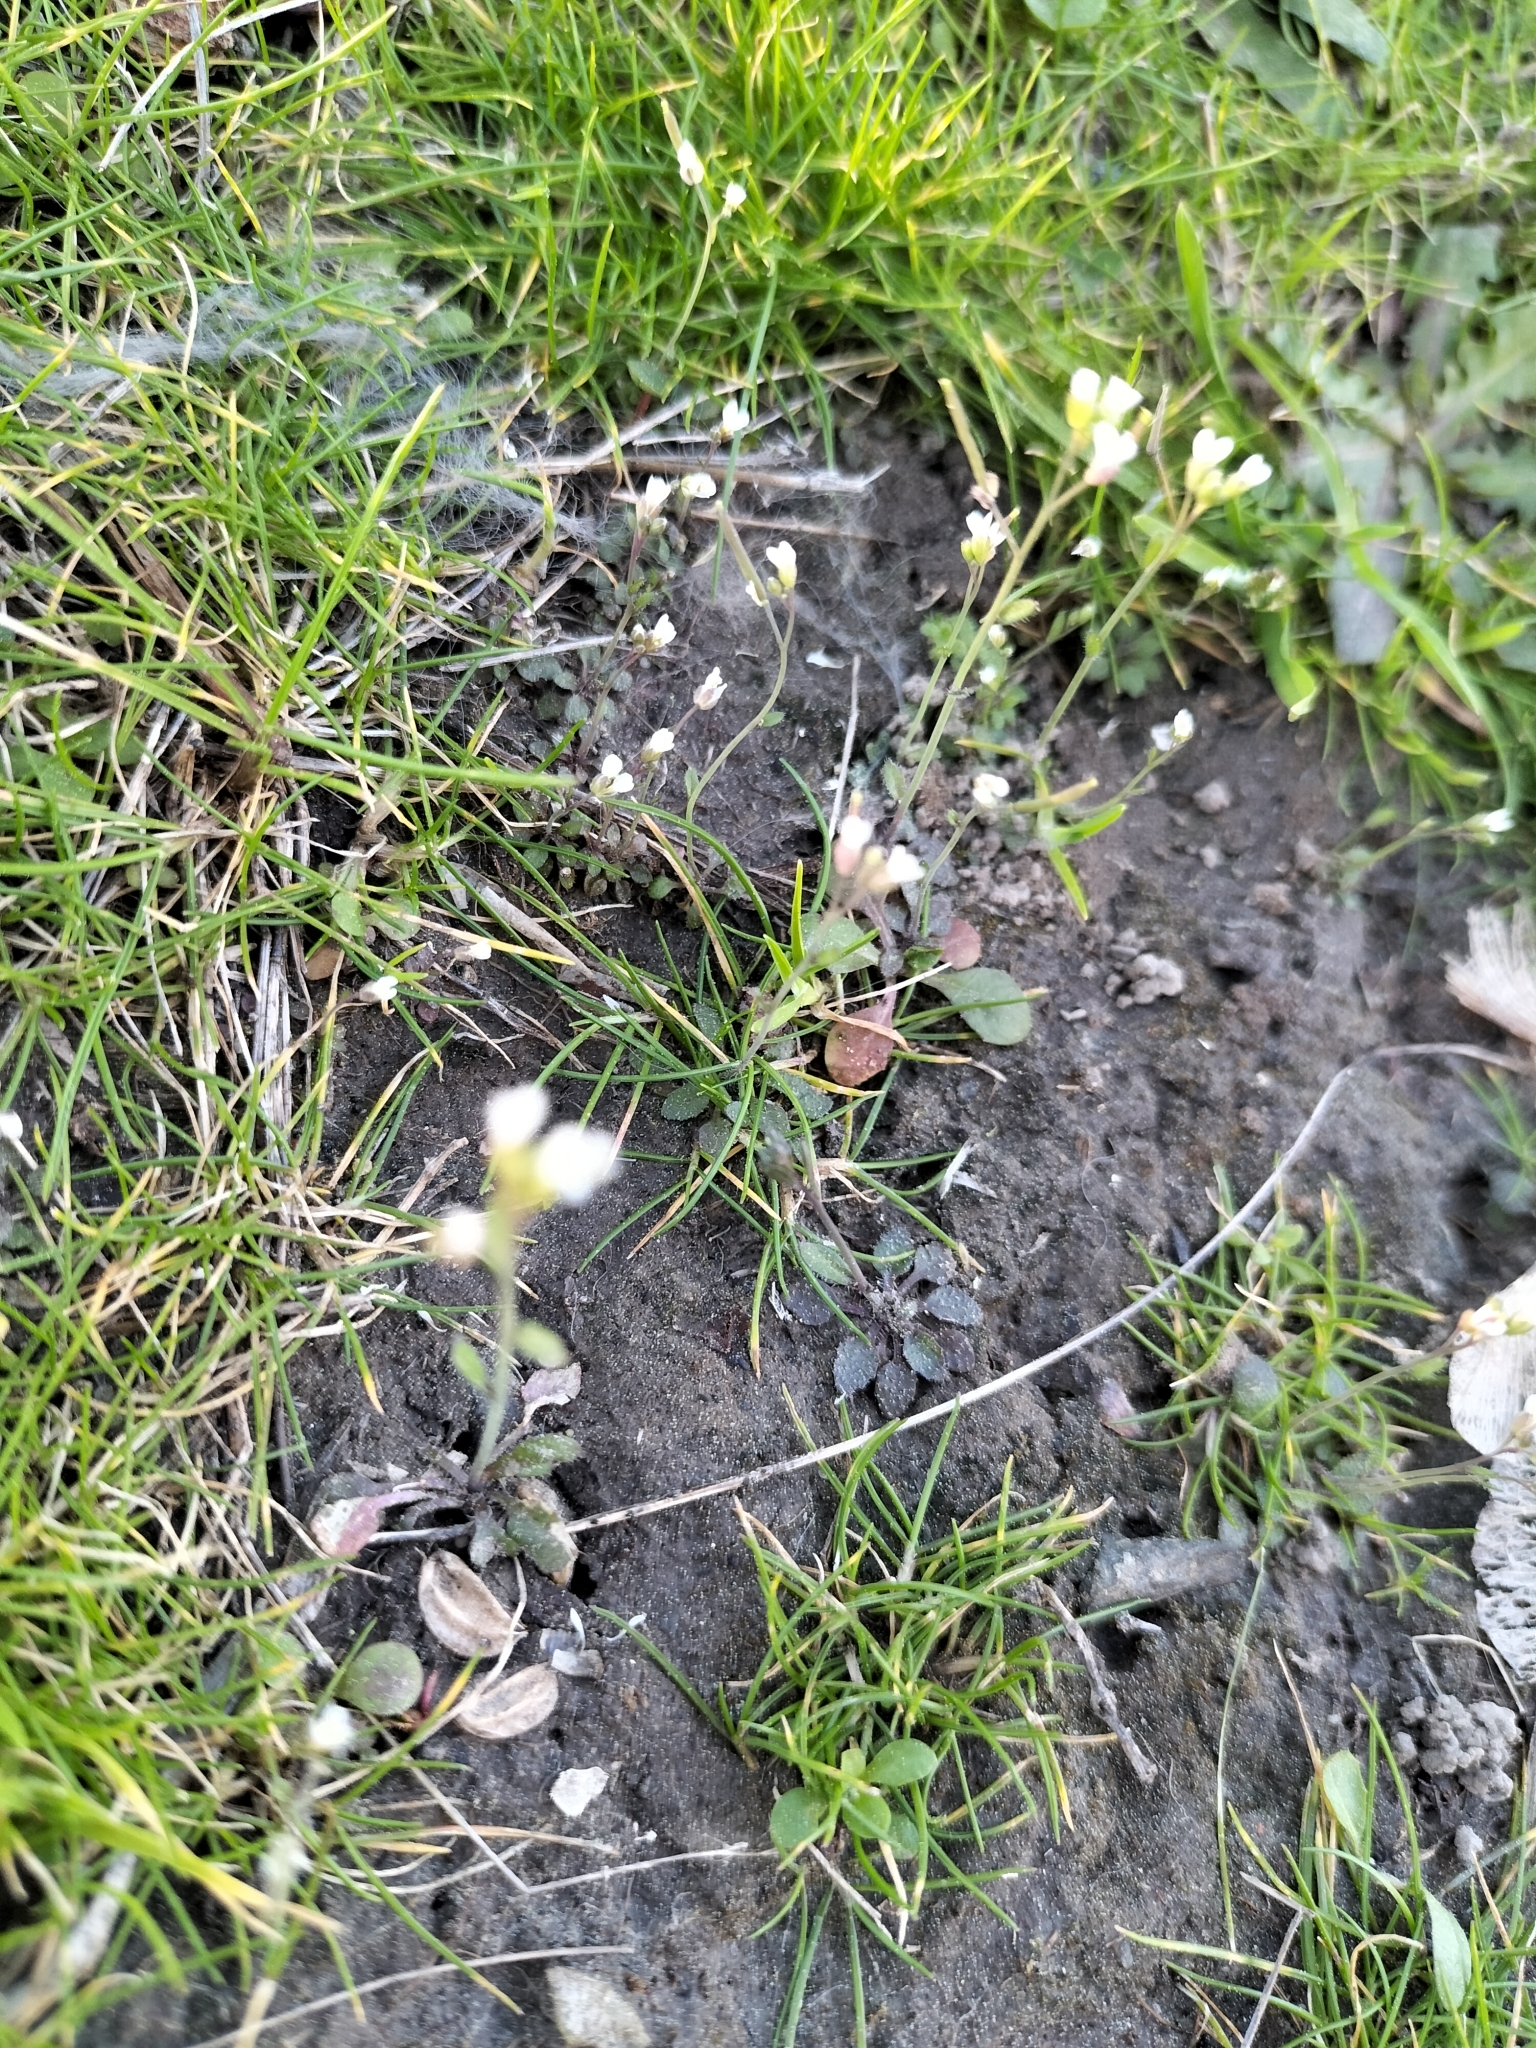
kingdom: Plantae
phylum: Tracheophyta
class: Magnoliopsida
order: Brassicales
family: Brassicaceae
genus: Arabidopsis
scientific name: Arabidopsis thaliana
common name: Thale cress
